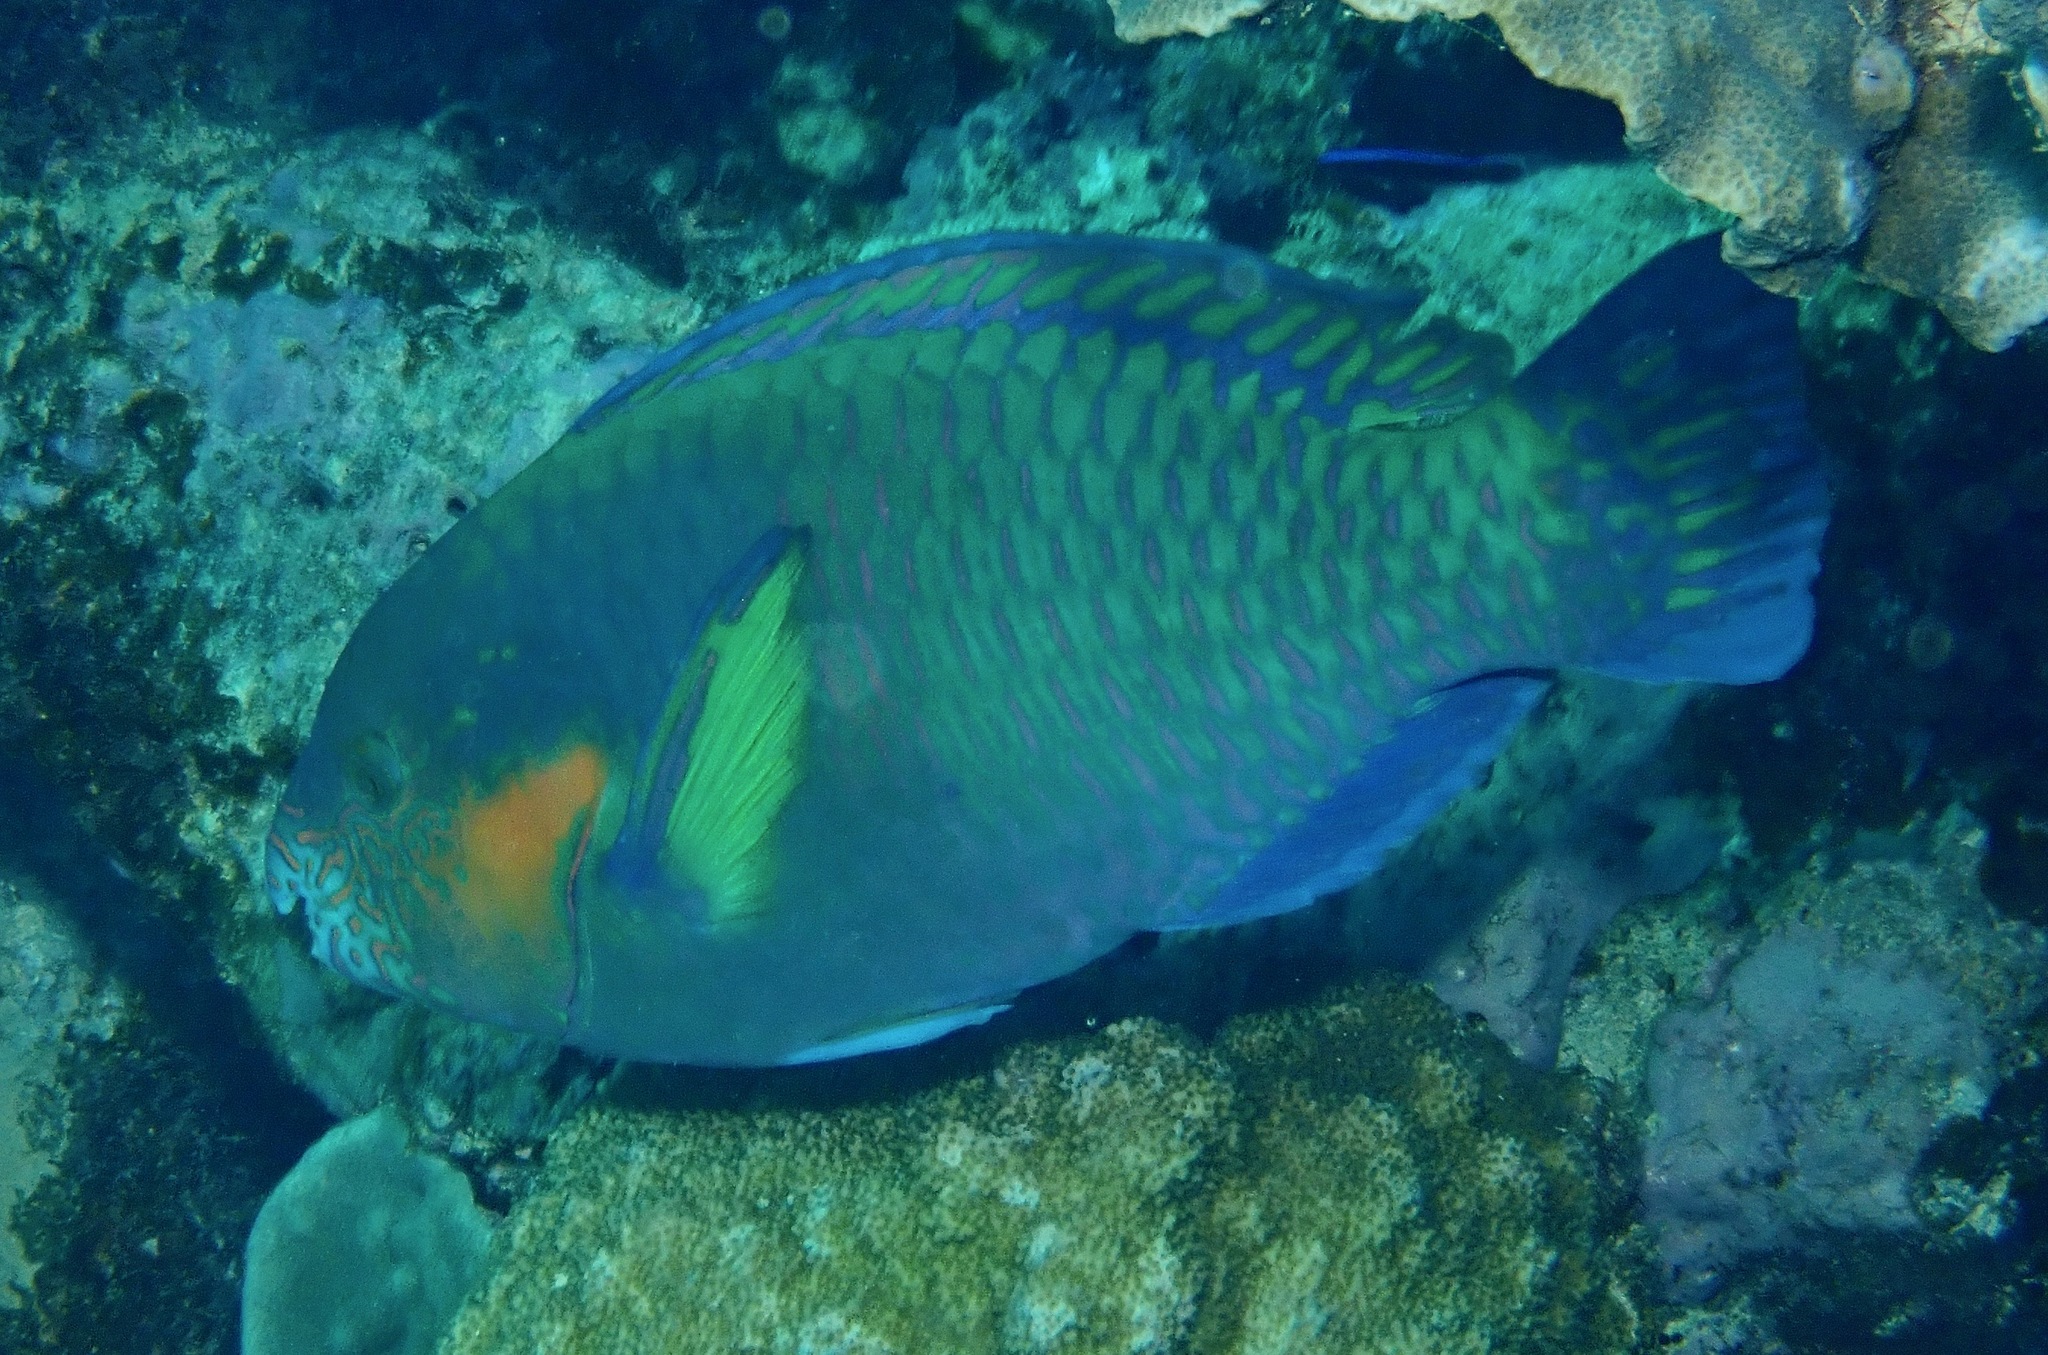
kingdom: Animalia
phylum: Chordata
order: Perciformes
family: Scaridae
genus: Scarus
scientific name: Scarus rivulatus
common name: Surf parrotfish
